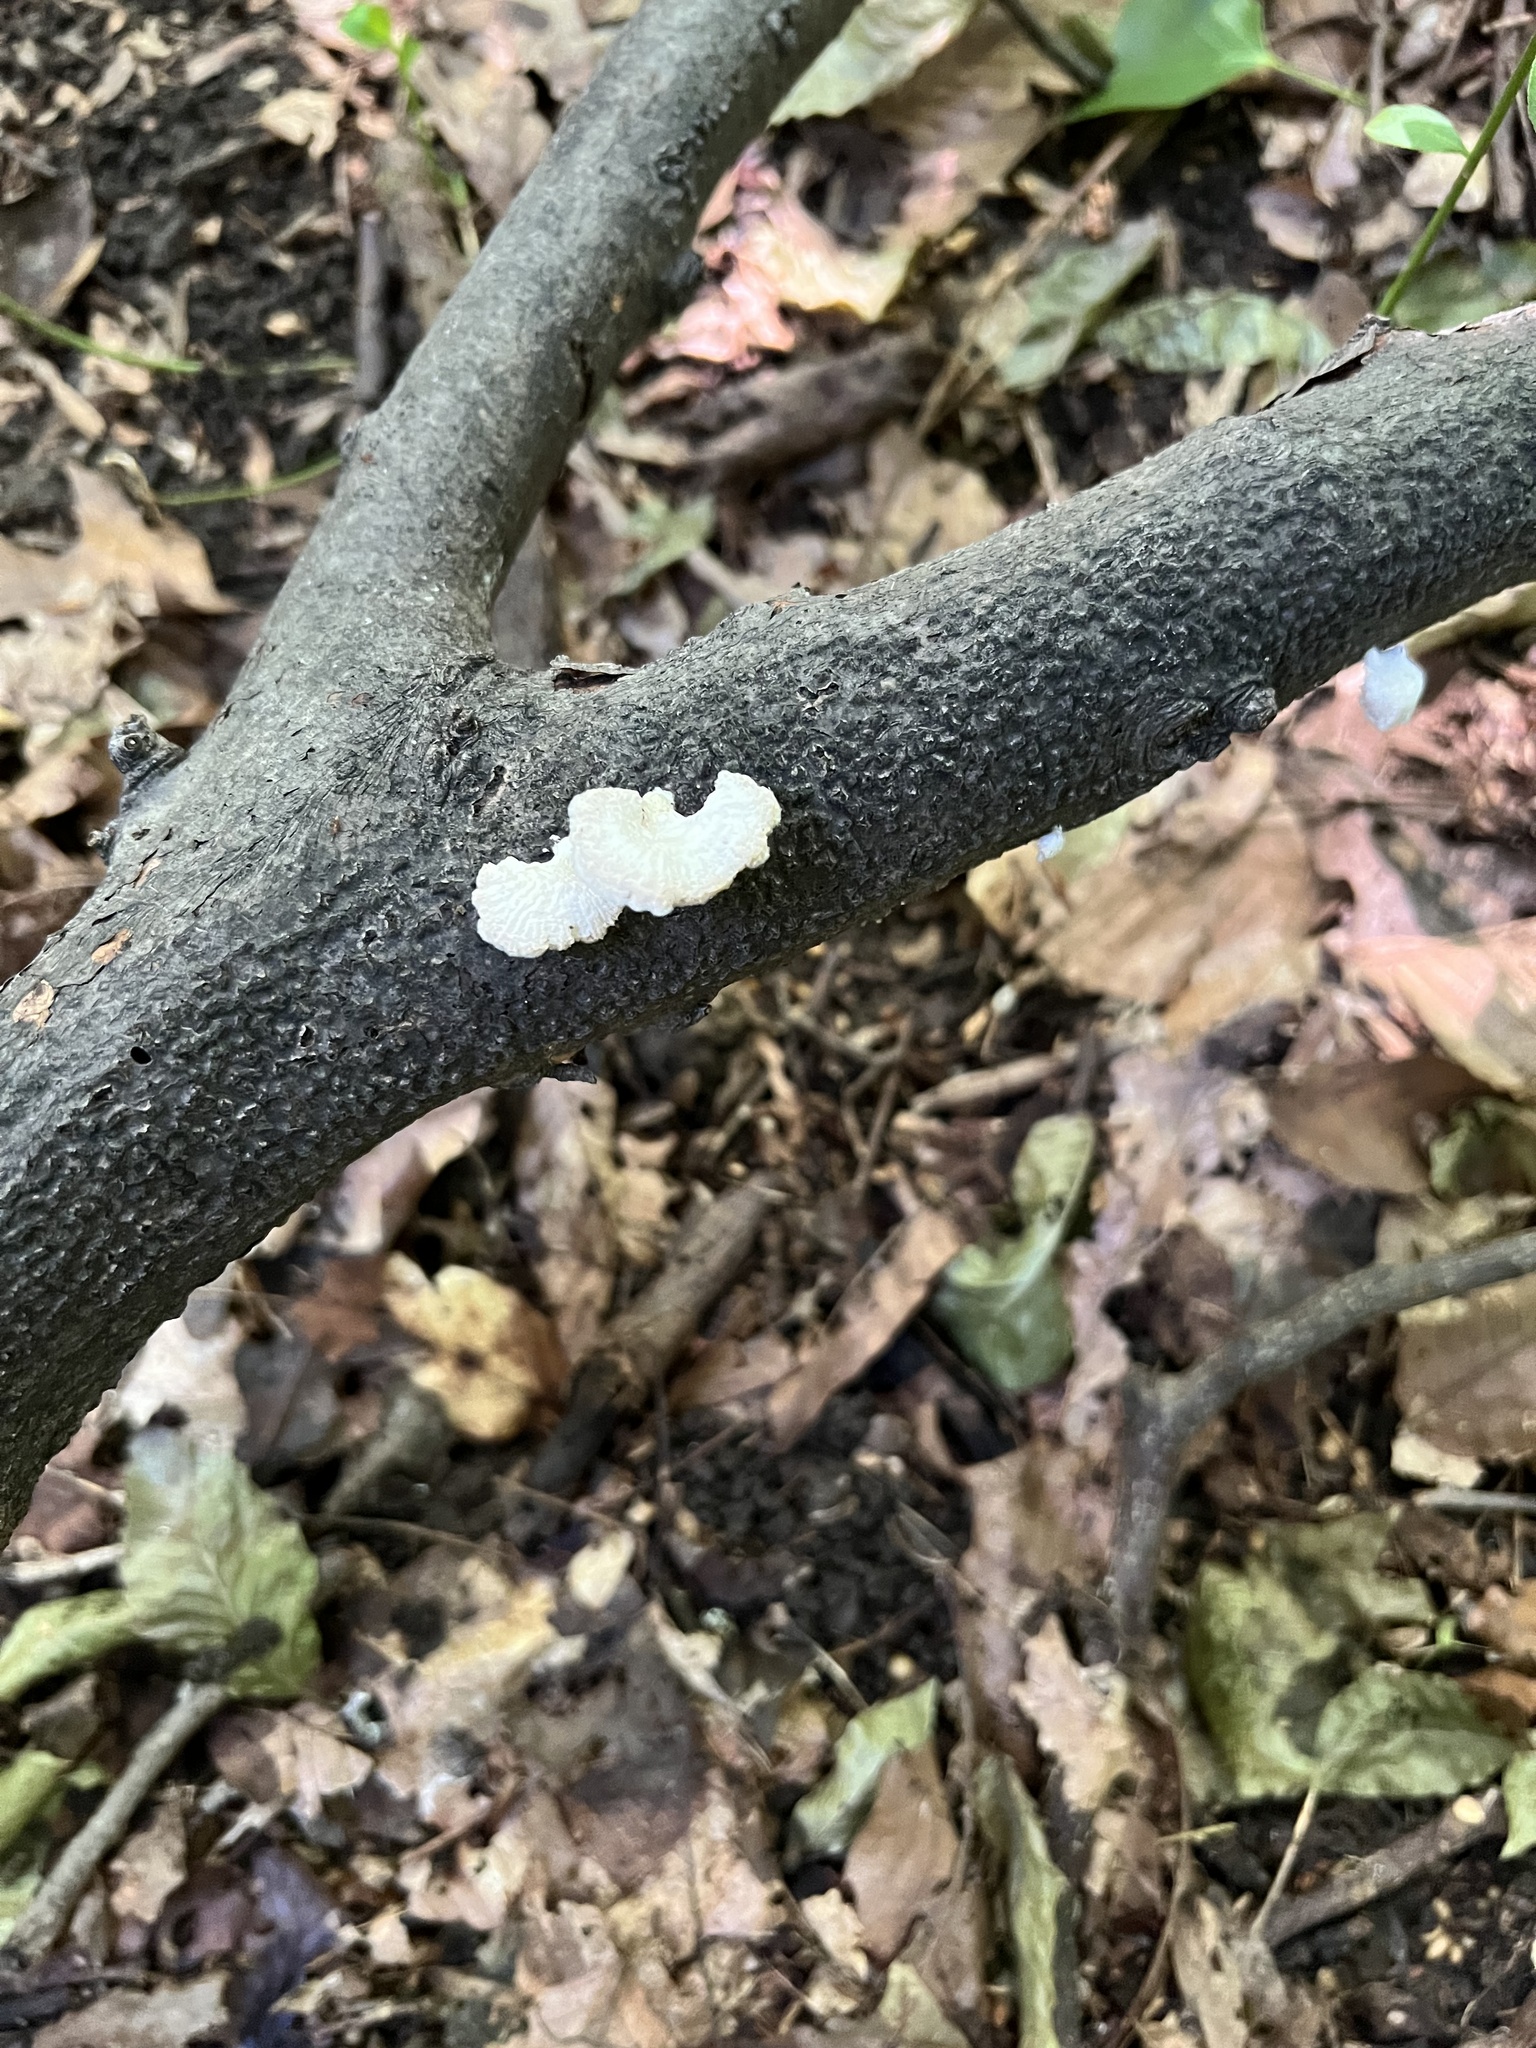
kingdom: Fungi
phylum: Basidiomycota
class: Agaricomycetes
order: Agaricales
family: Schizophyllaceae
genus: Schizophyllum
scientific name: Schizophyllum commune
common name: Common porecrust
